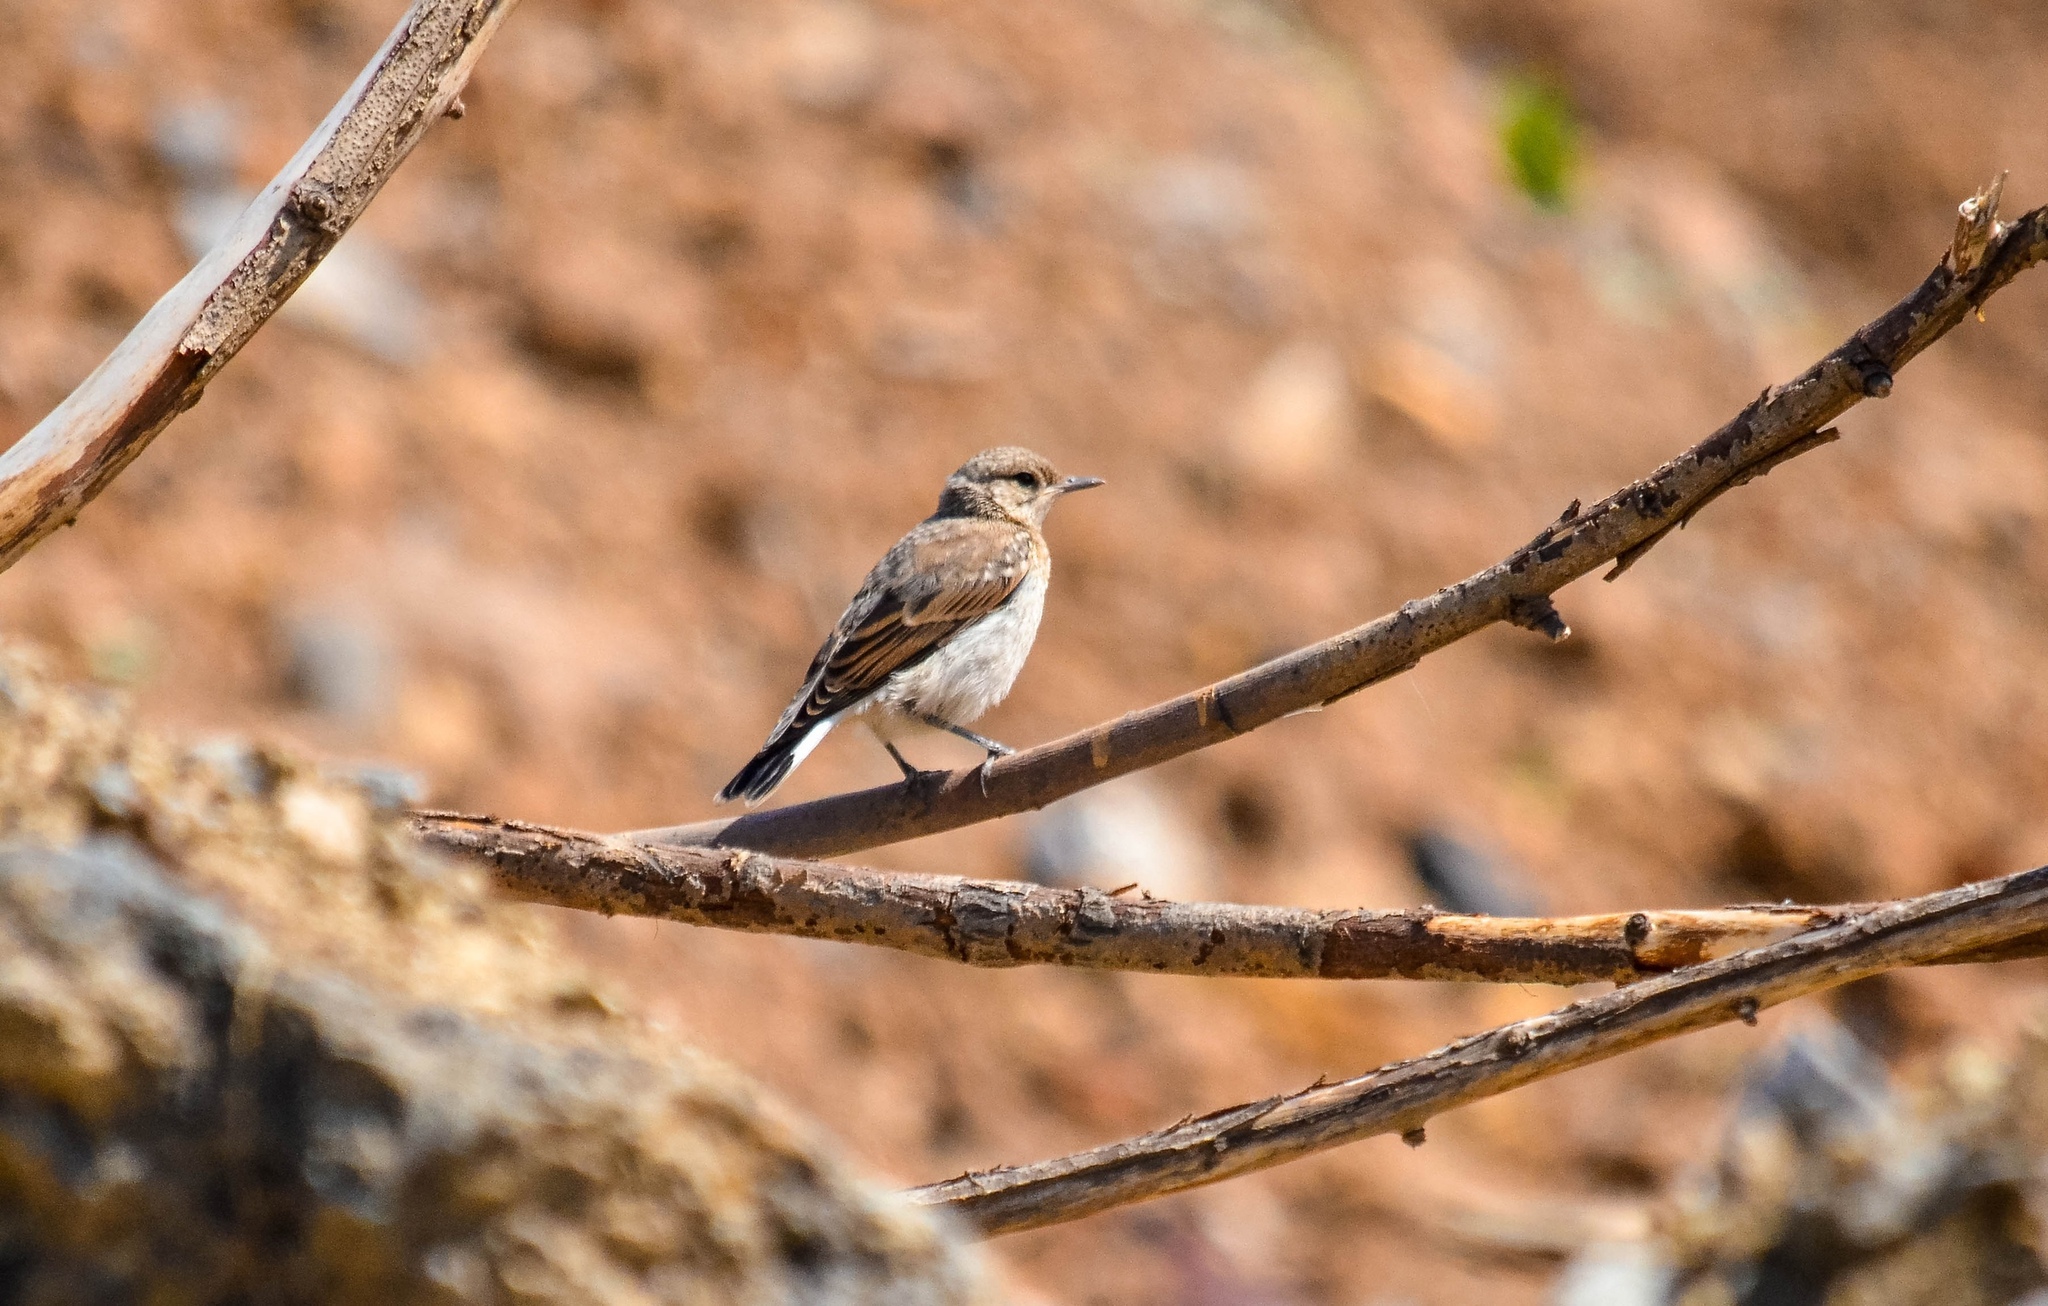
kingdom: Animalia
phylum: Chordata
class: Aves
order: Passeriformes
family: Muscicapidae
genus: Oenanthe
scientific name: Oenanthe oenanthe
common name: Northern wheatear
